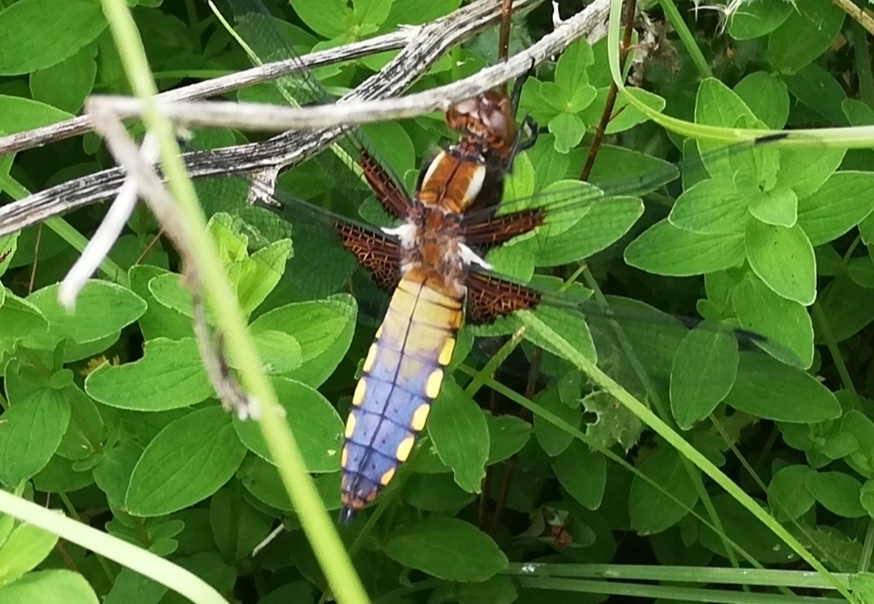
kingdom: Animalia
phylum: Arthropoda
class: Insecta
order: Odonata
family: Libellulidae
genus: Libellula
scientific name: Libellula depressa
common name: Broad-bodied chaser
